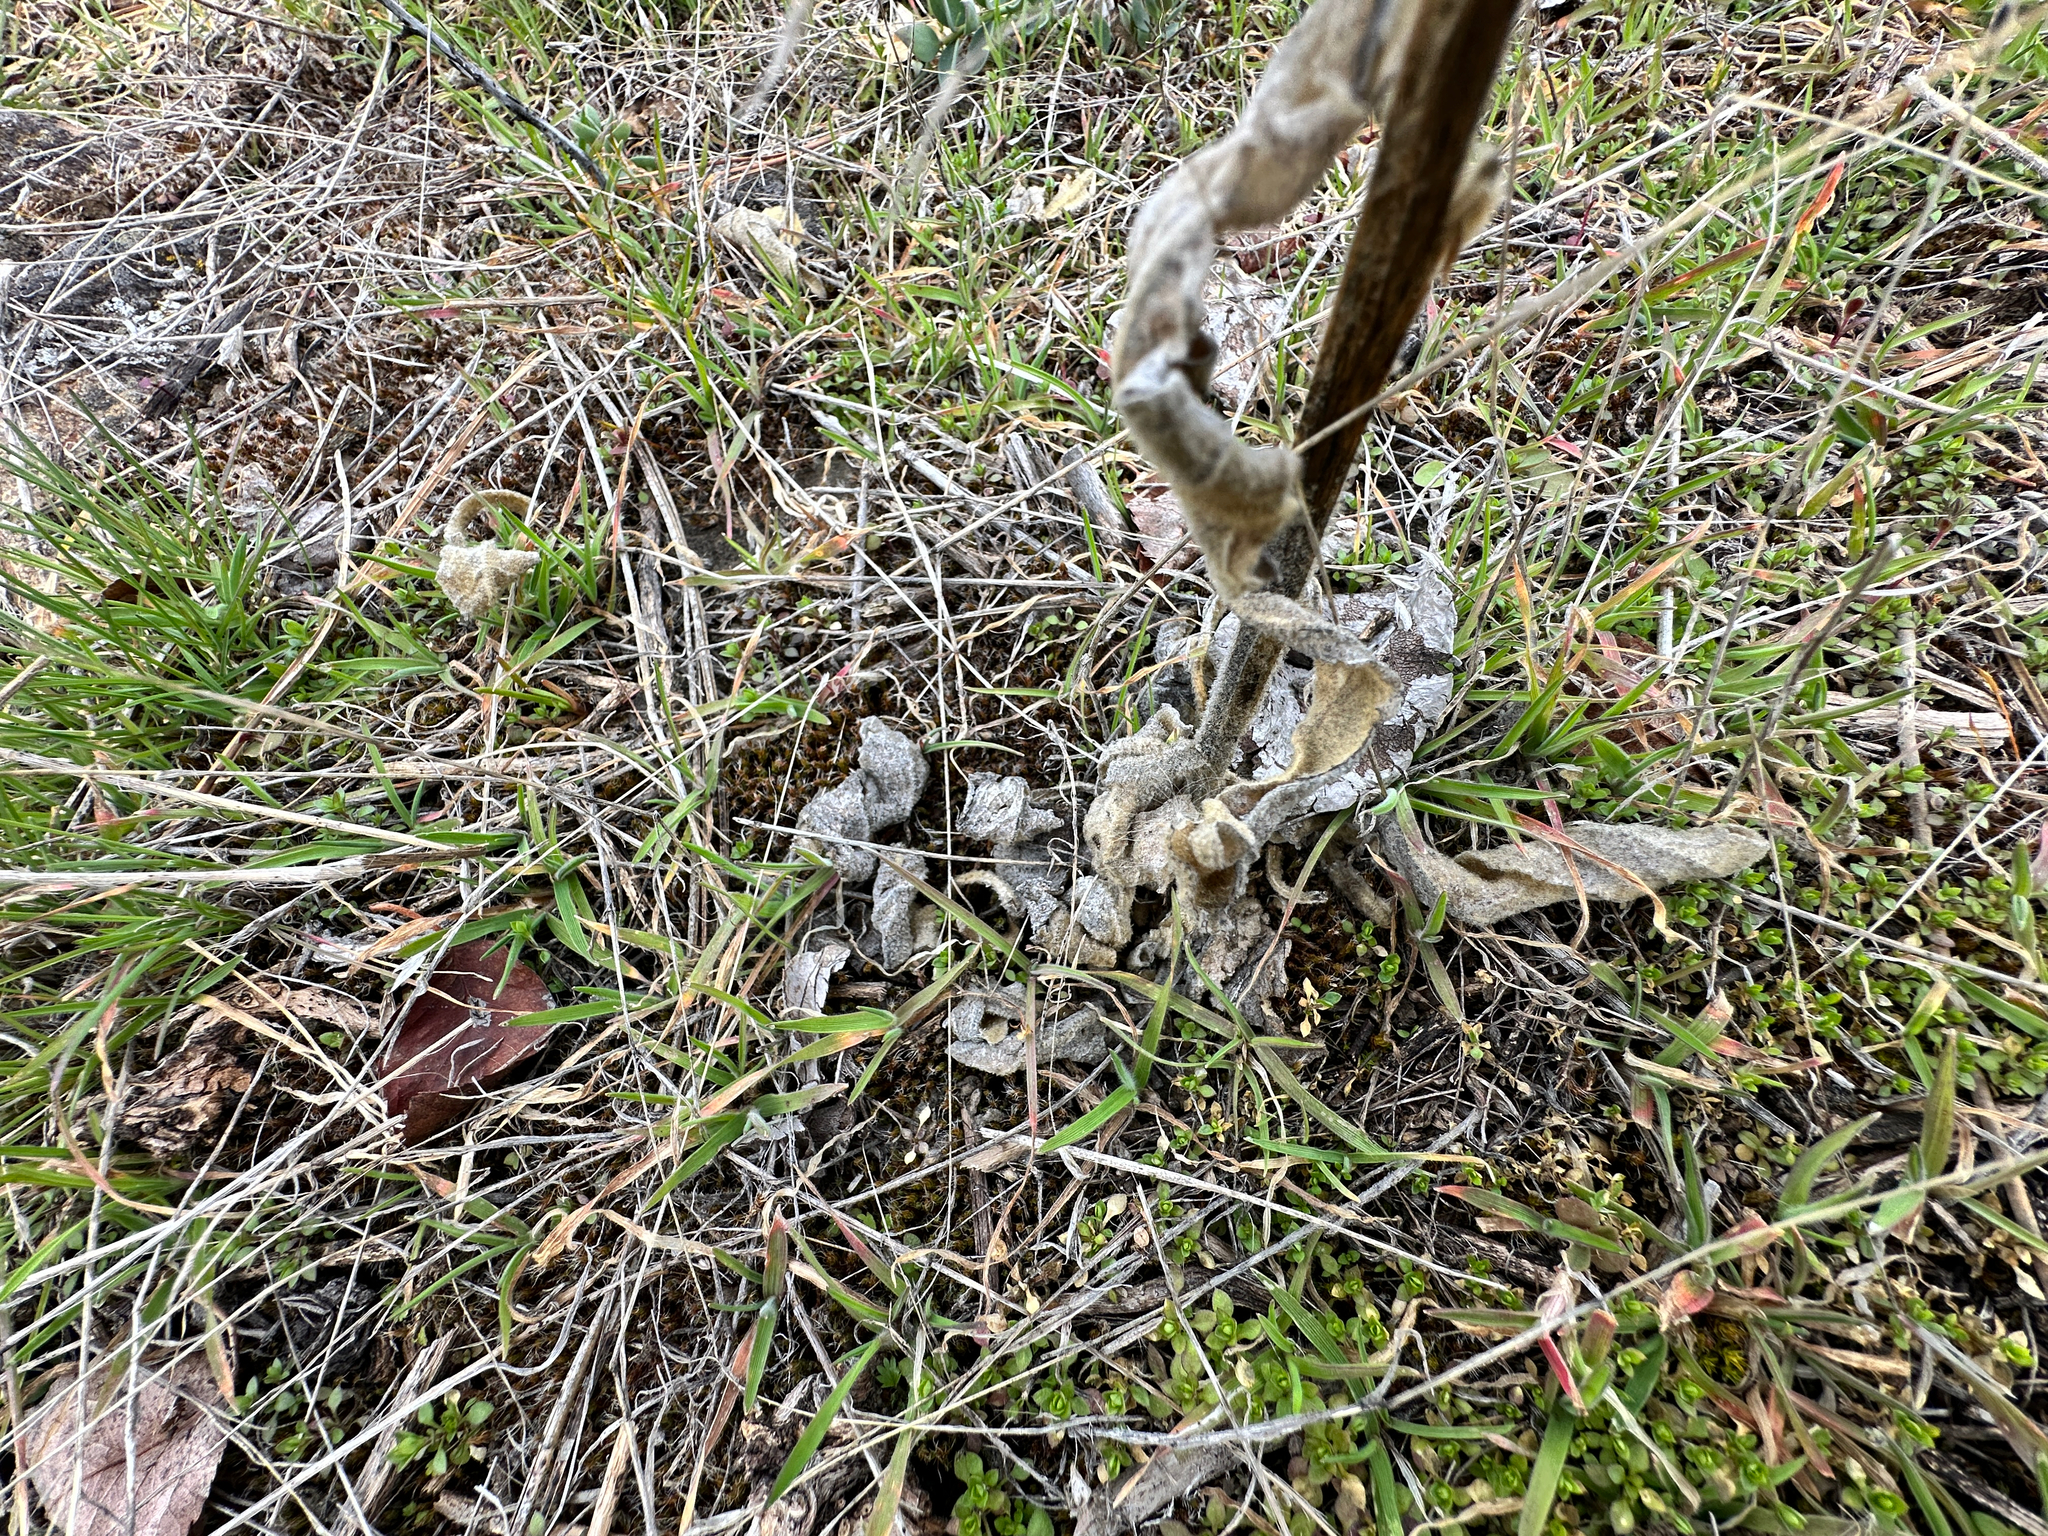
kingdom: Plantae
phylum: Tracheophyta
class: Magnoliopsida
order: Lamiales
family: Scrophulariaceae
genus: Verbascum
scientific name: Verbascum thapsus
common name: Common mullein
